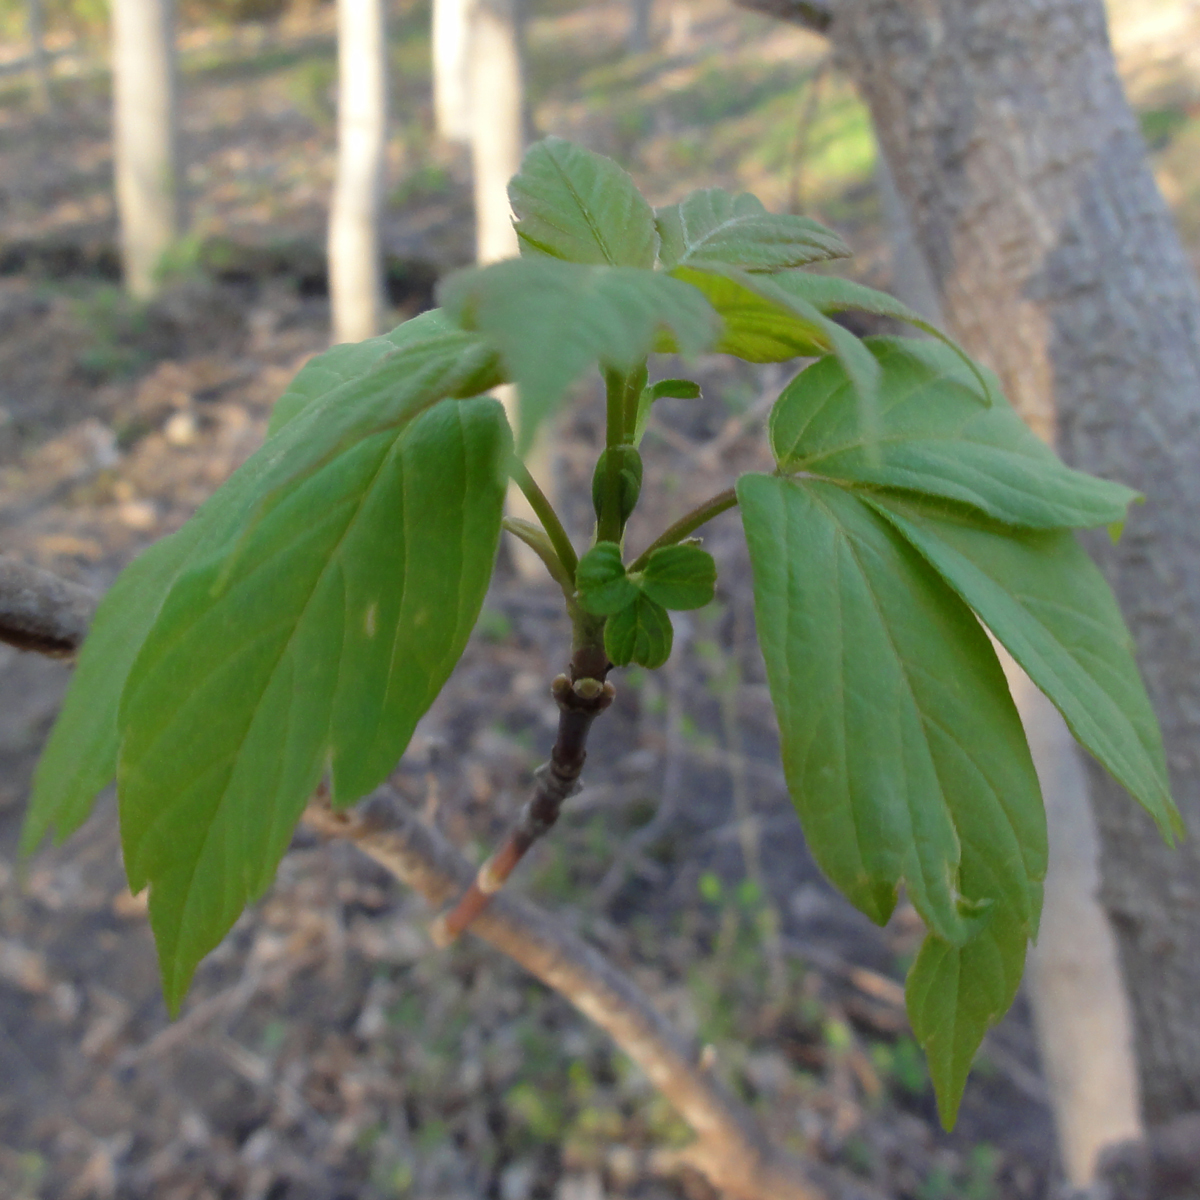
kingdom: Plantae
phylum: Tracheophyta
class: Magnoliopsida
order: Sapindales
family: Sapindaceae
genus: Acer
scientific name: Acer negundo
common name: Ashleaf maple
